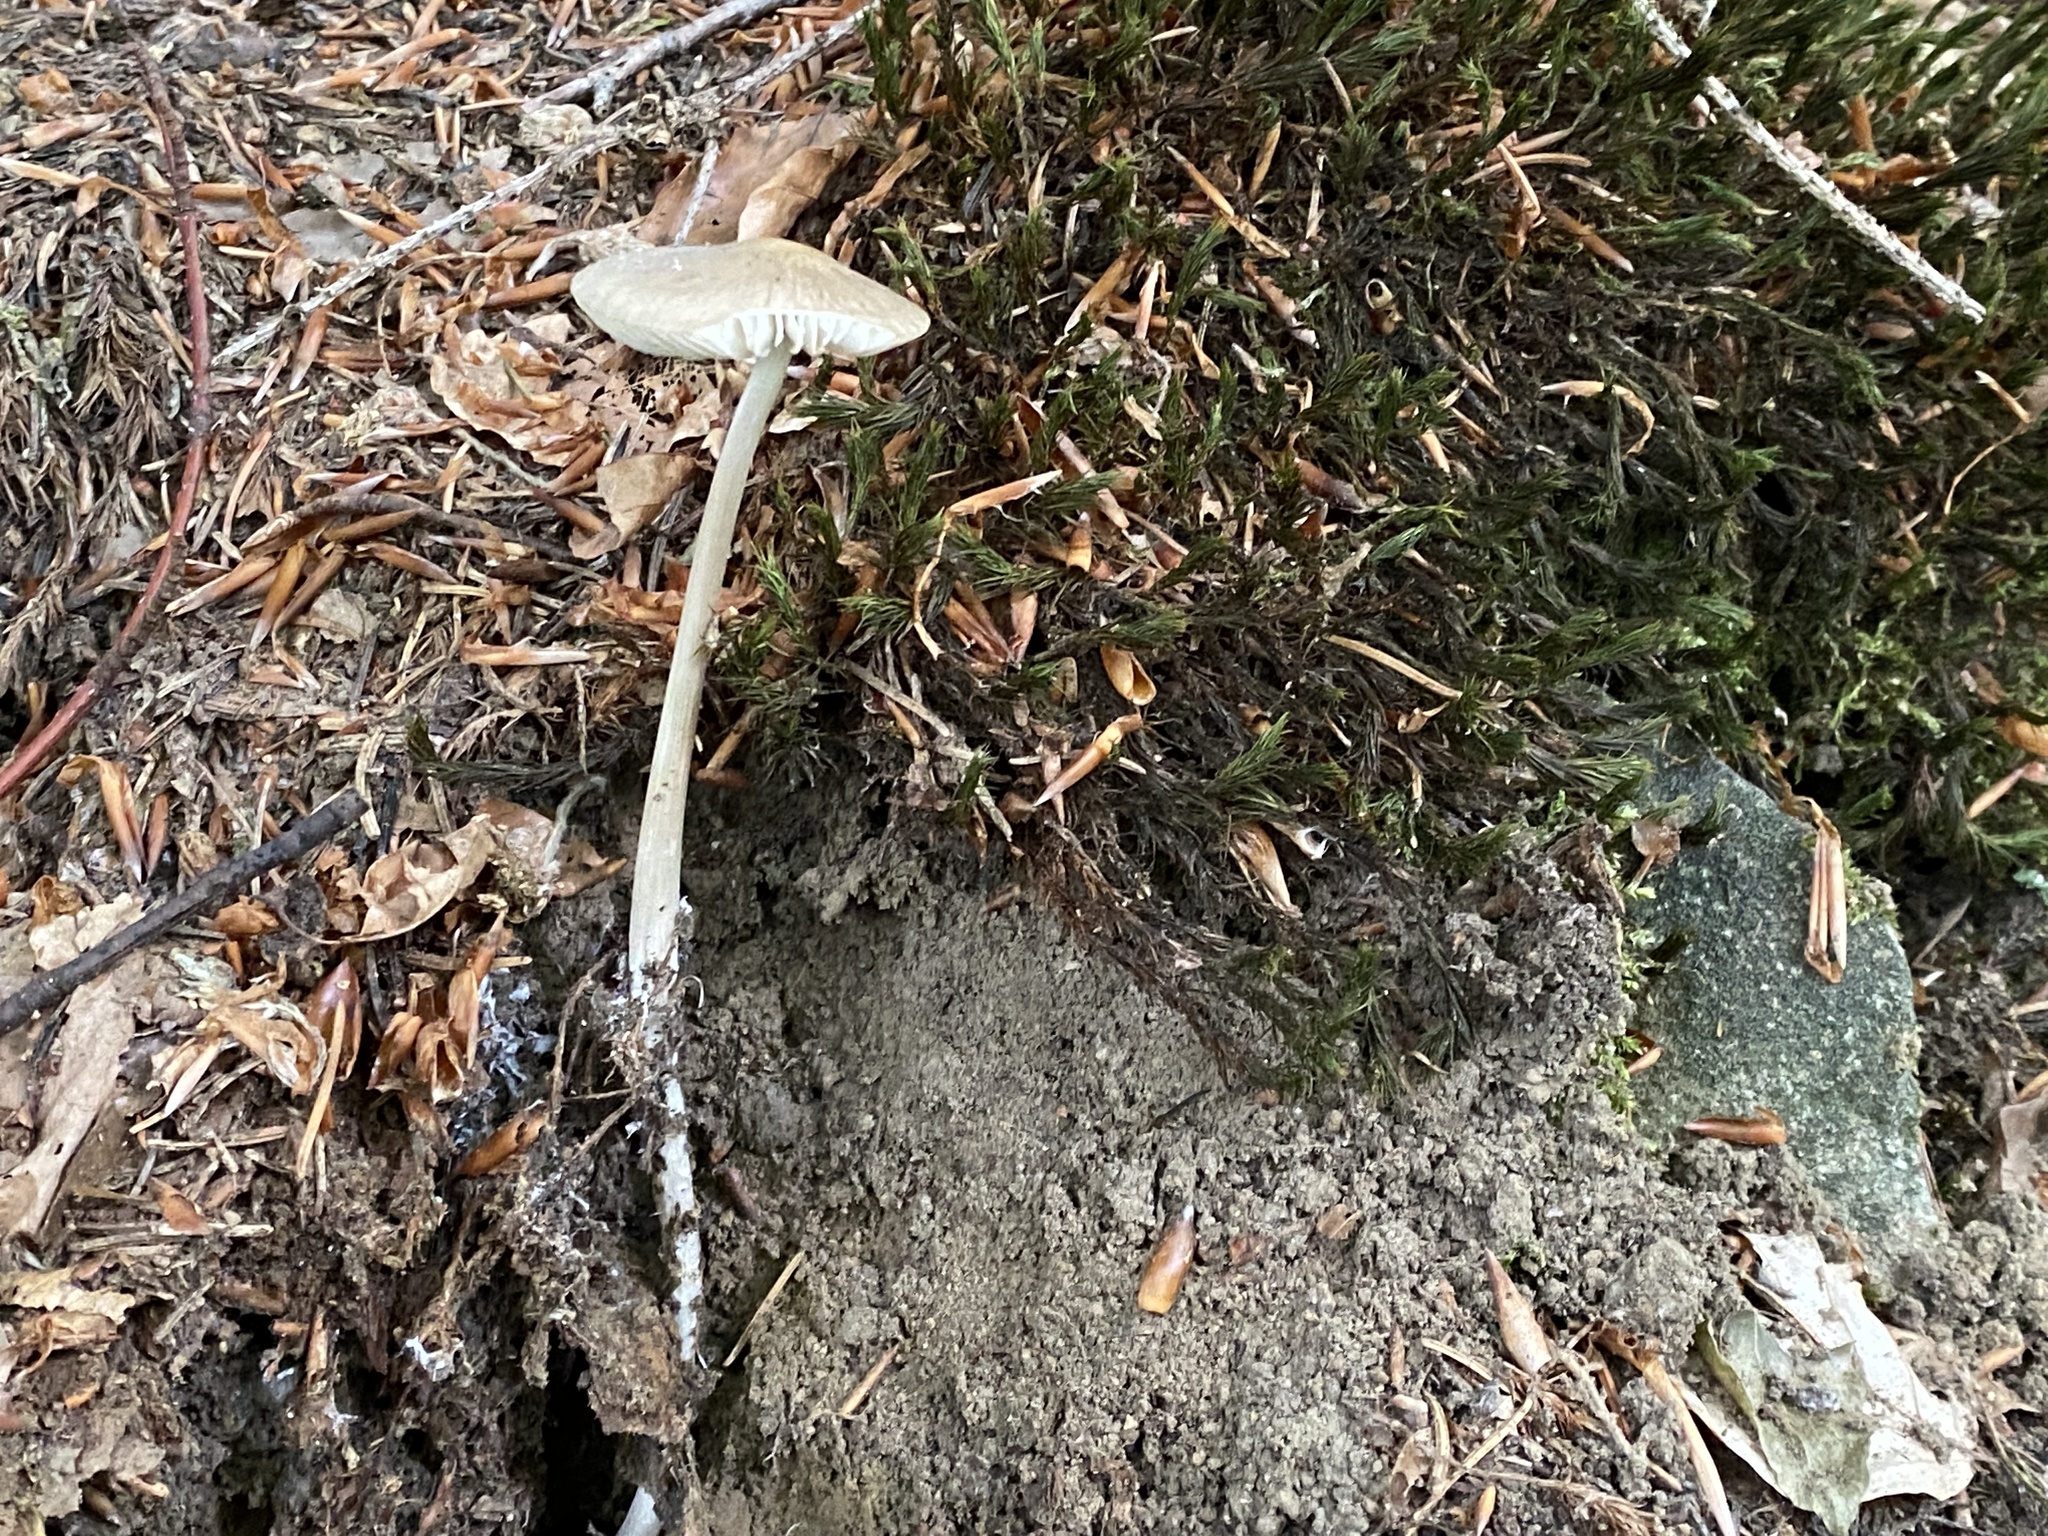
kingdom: Fungi
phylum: Basidiomycota
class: Agaricomycetes
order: Agaricales
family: Physalacriaceae
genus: Hymenopellis
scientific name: Hymenopellis radicata
